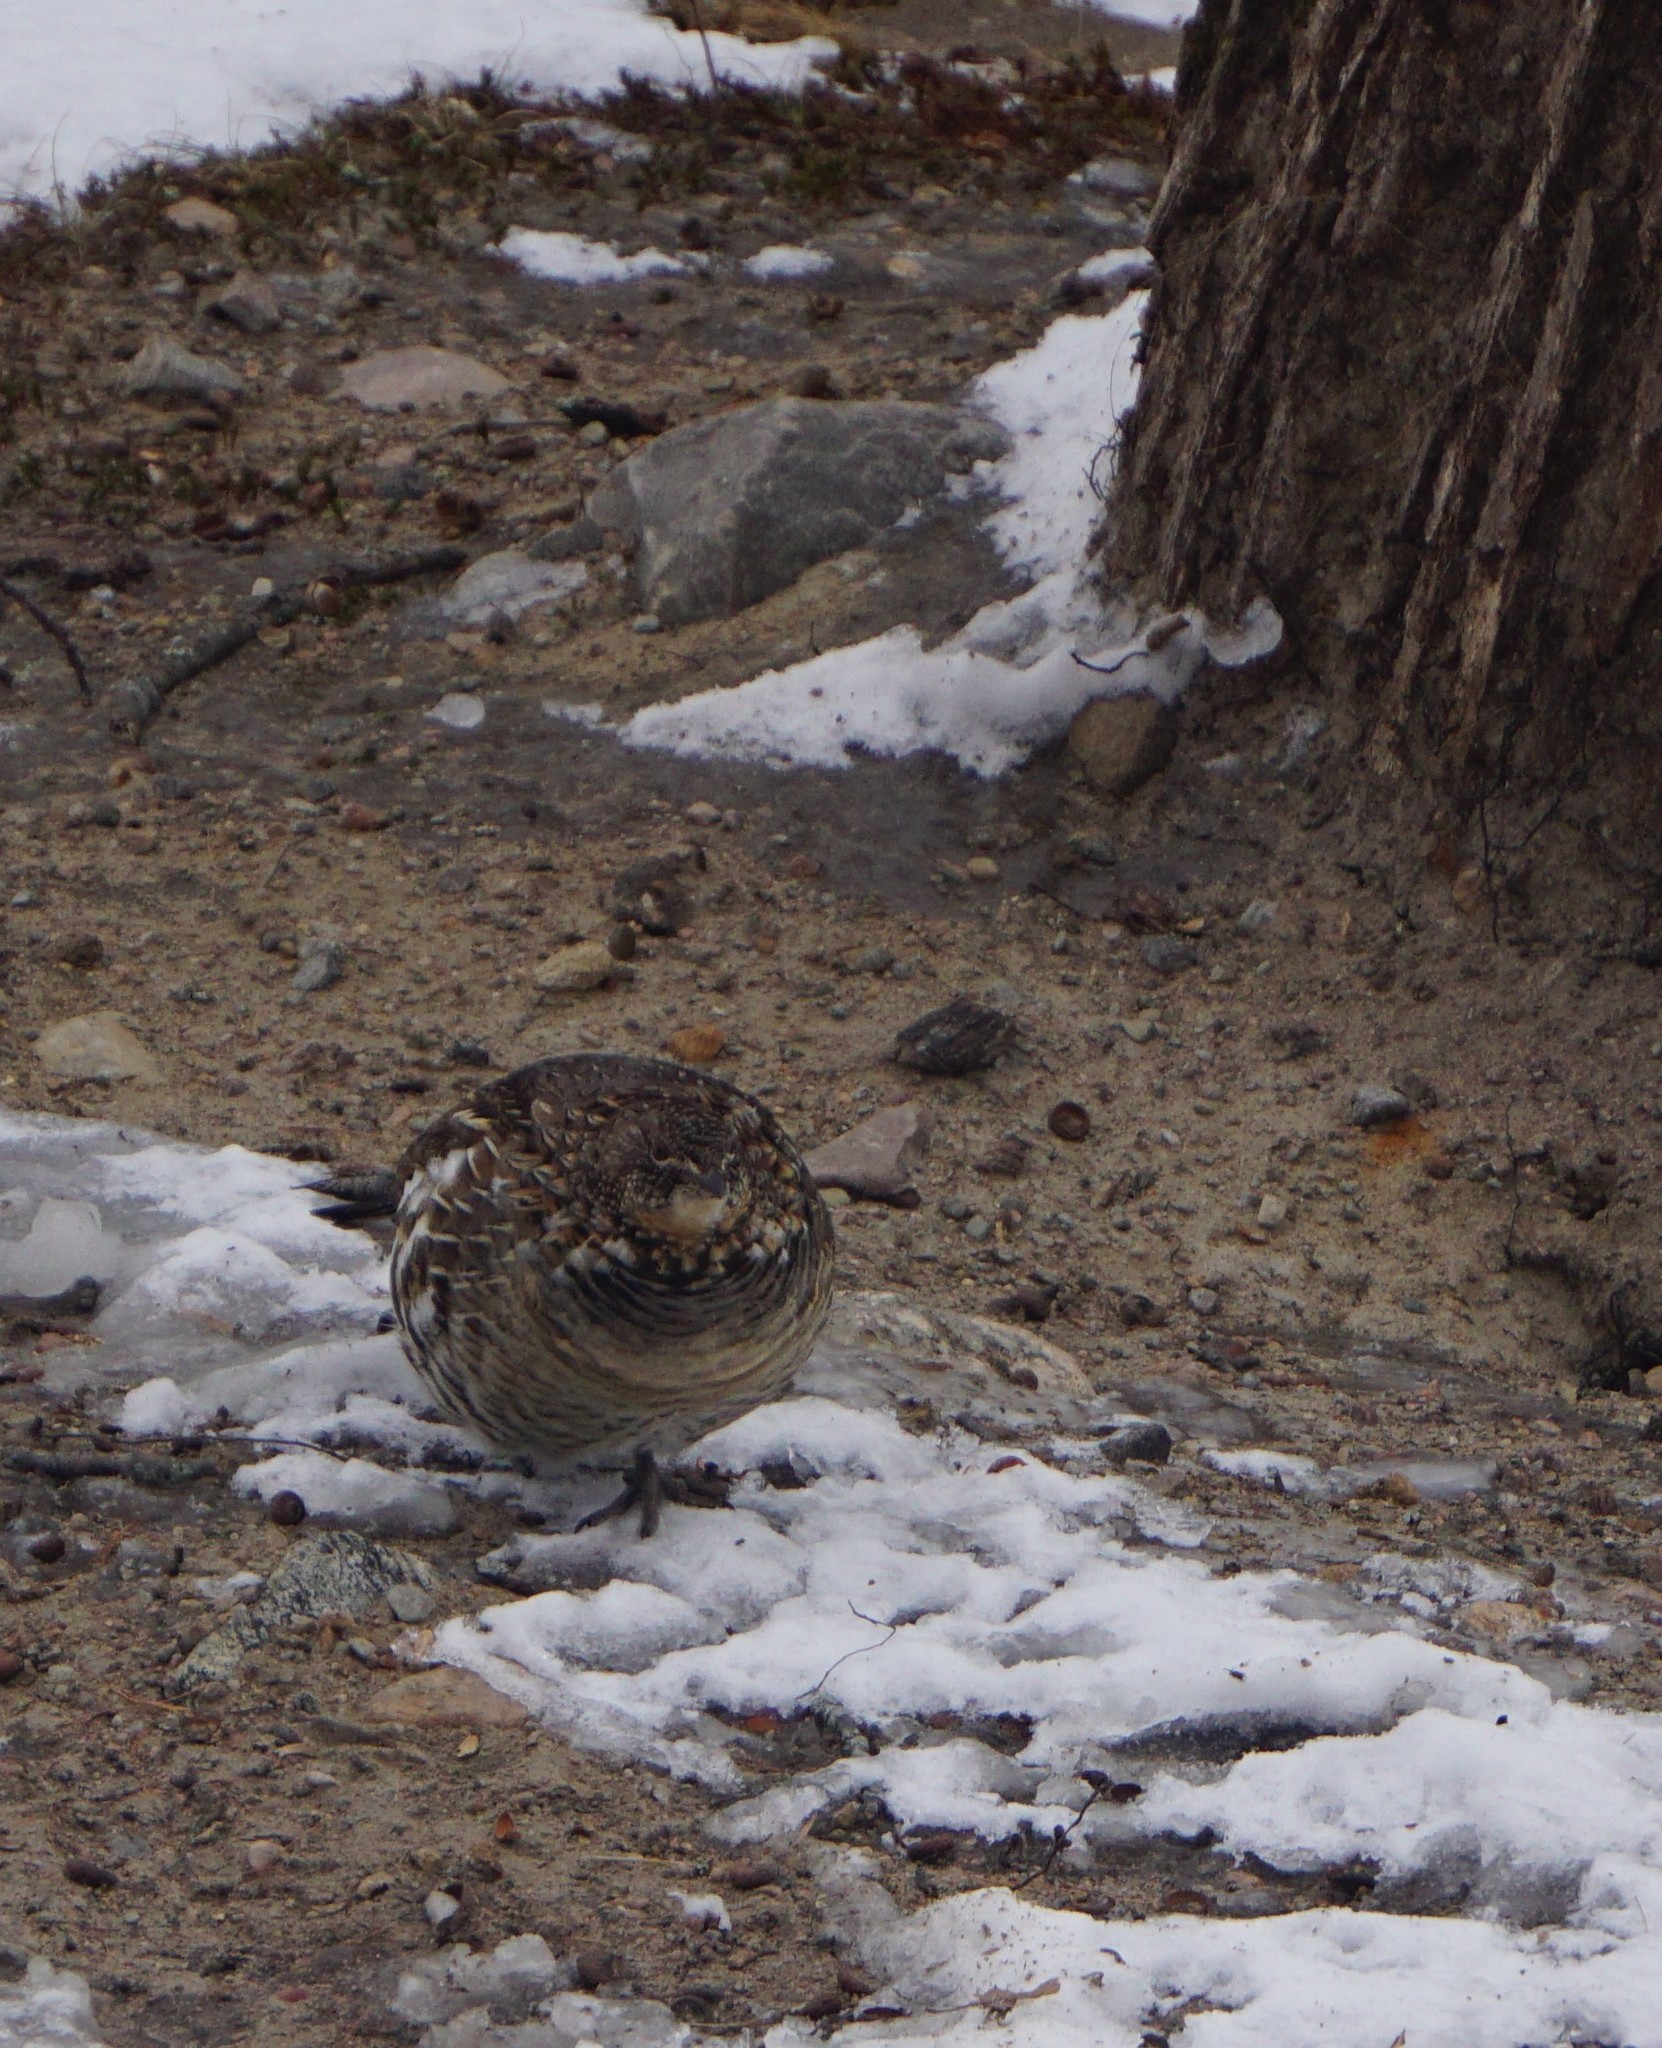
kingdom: Animalia
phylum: Chordata
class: Aves
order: Galliformes
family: Phasianidae
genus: Bonasa
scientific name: Bonasa umbellus
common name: Ruffed grouse
